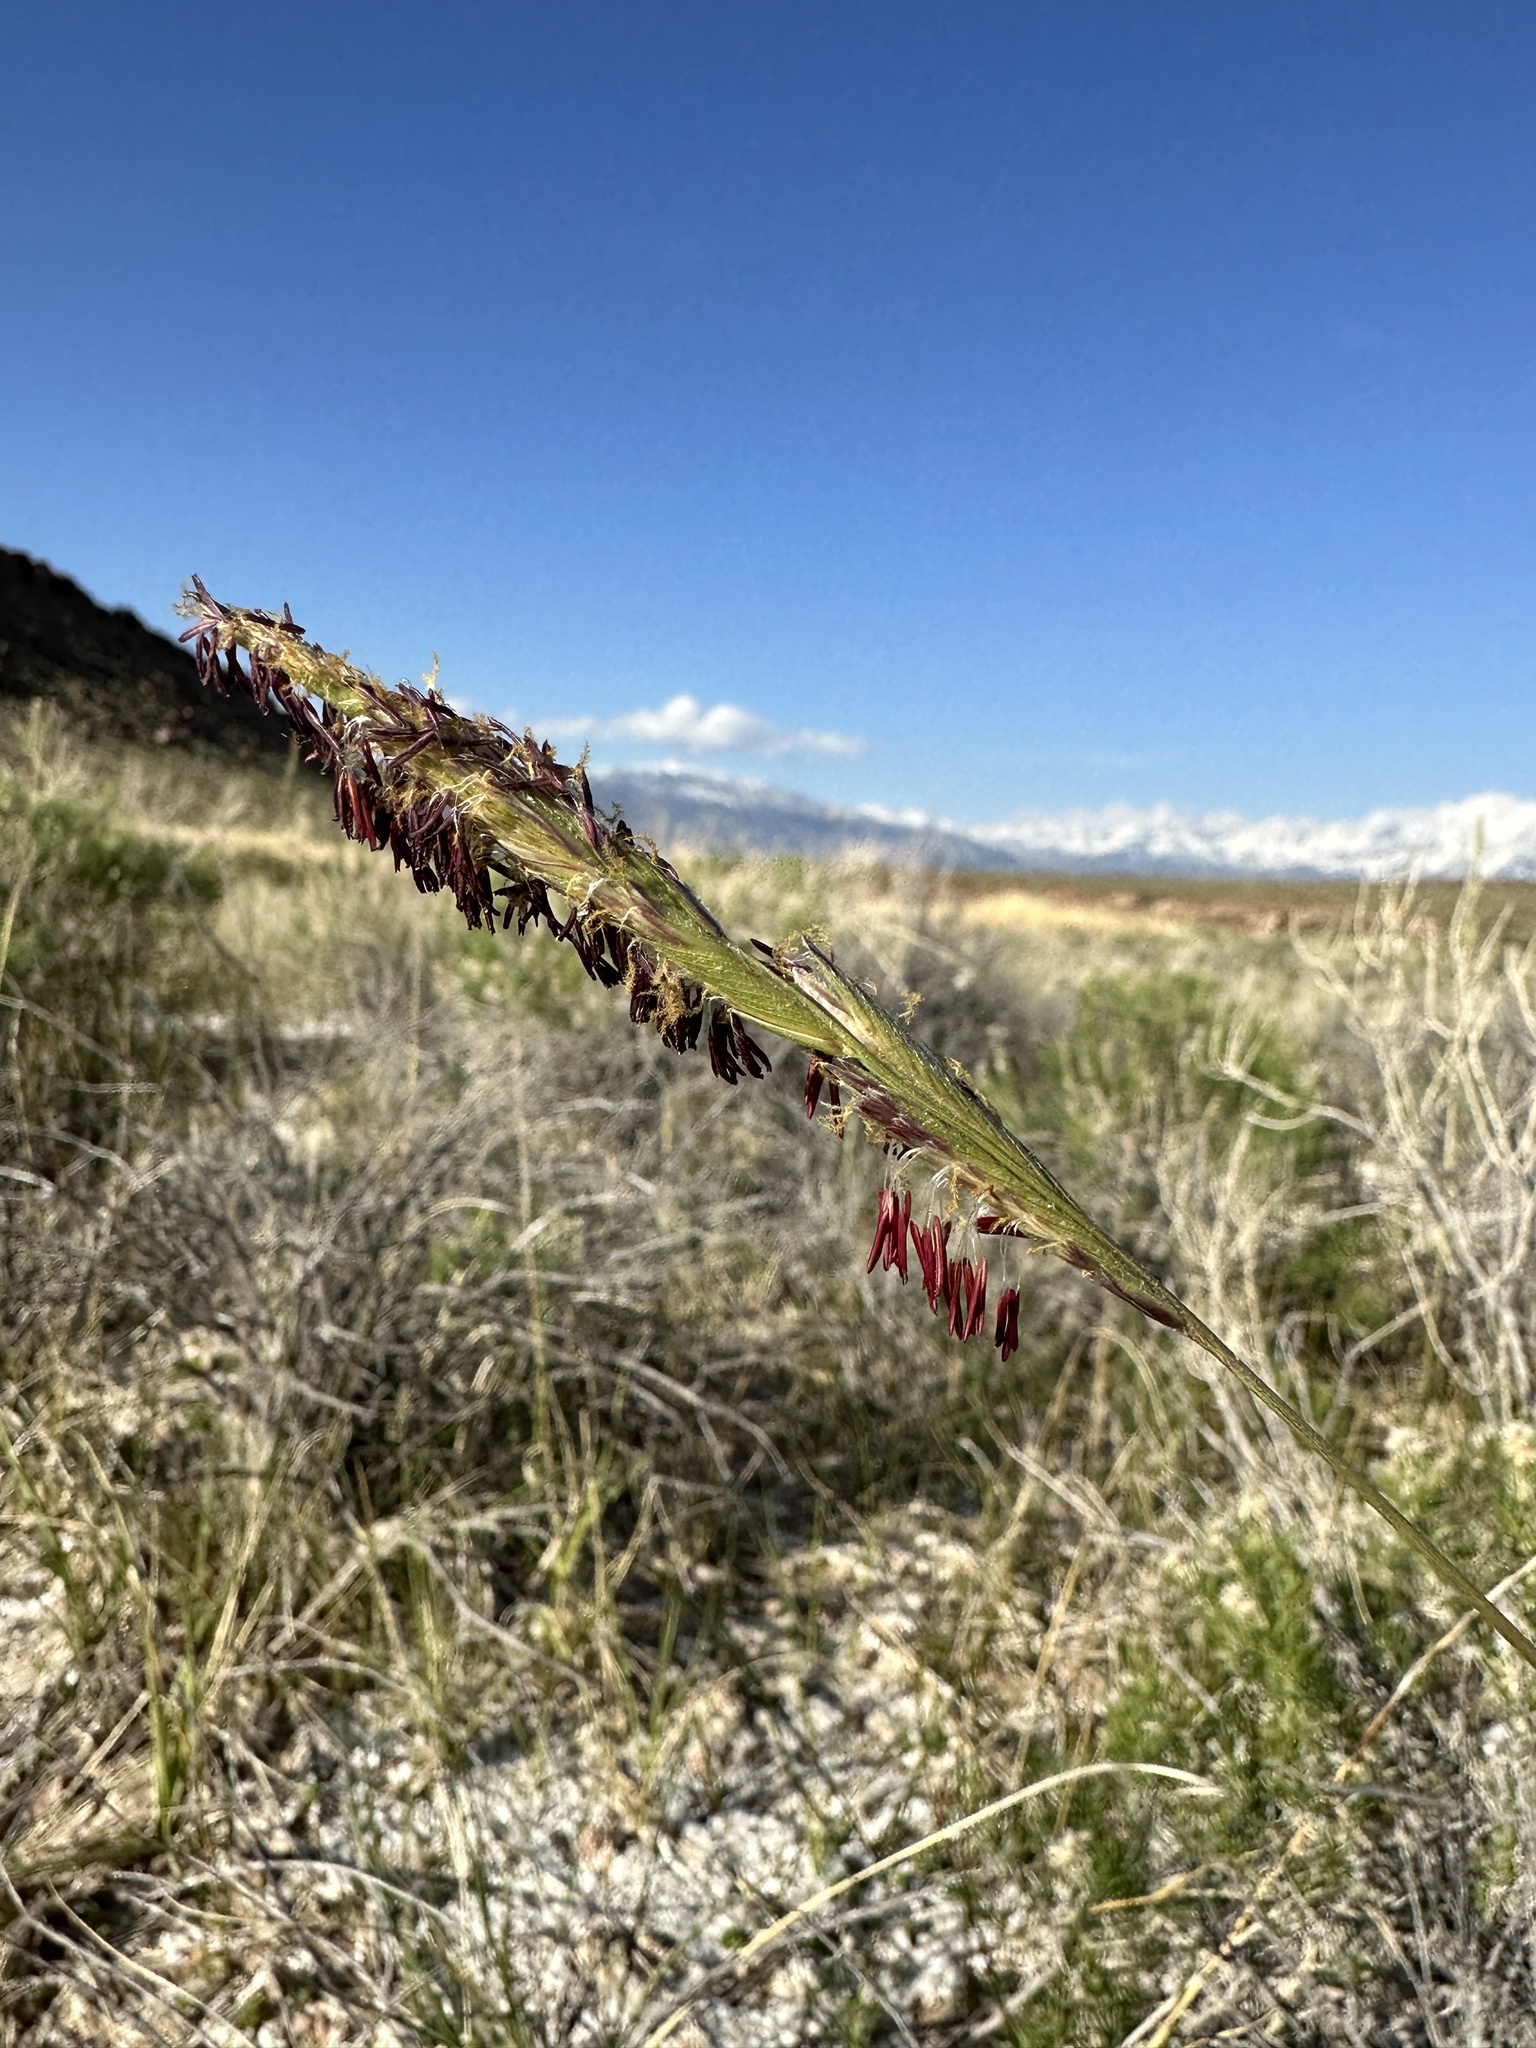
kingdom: Plantae
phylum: Tracheophyta
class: Liliopsida
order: Poales
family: Poaceae
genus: Sporobolus
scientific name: Sporobolus hookerianus
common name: Alkali cordgrass
